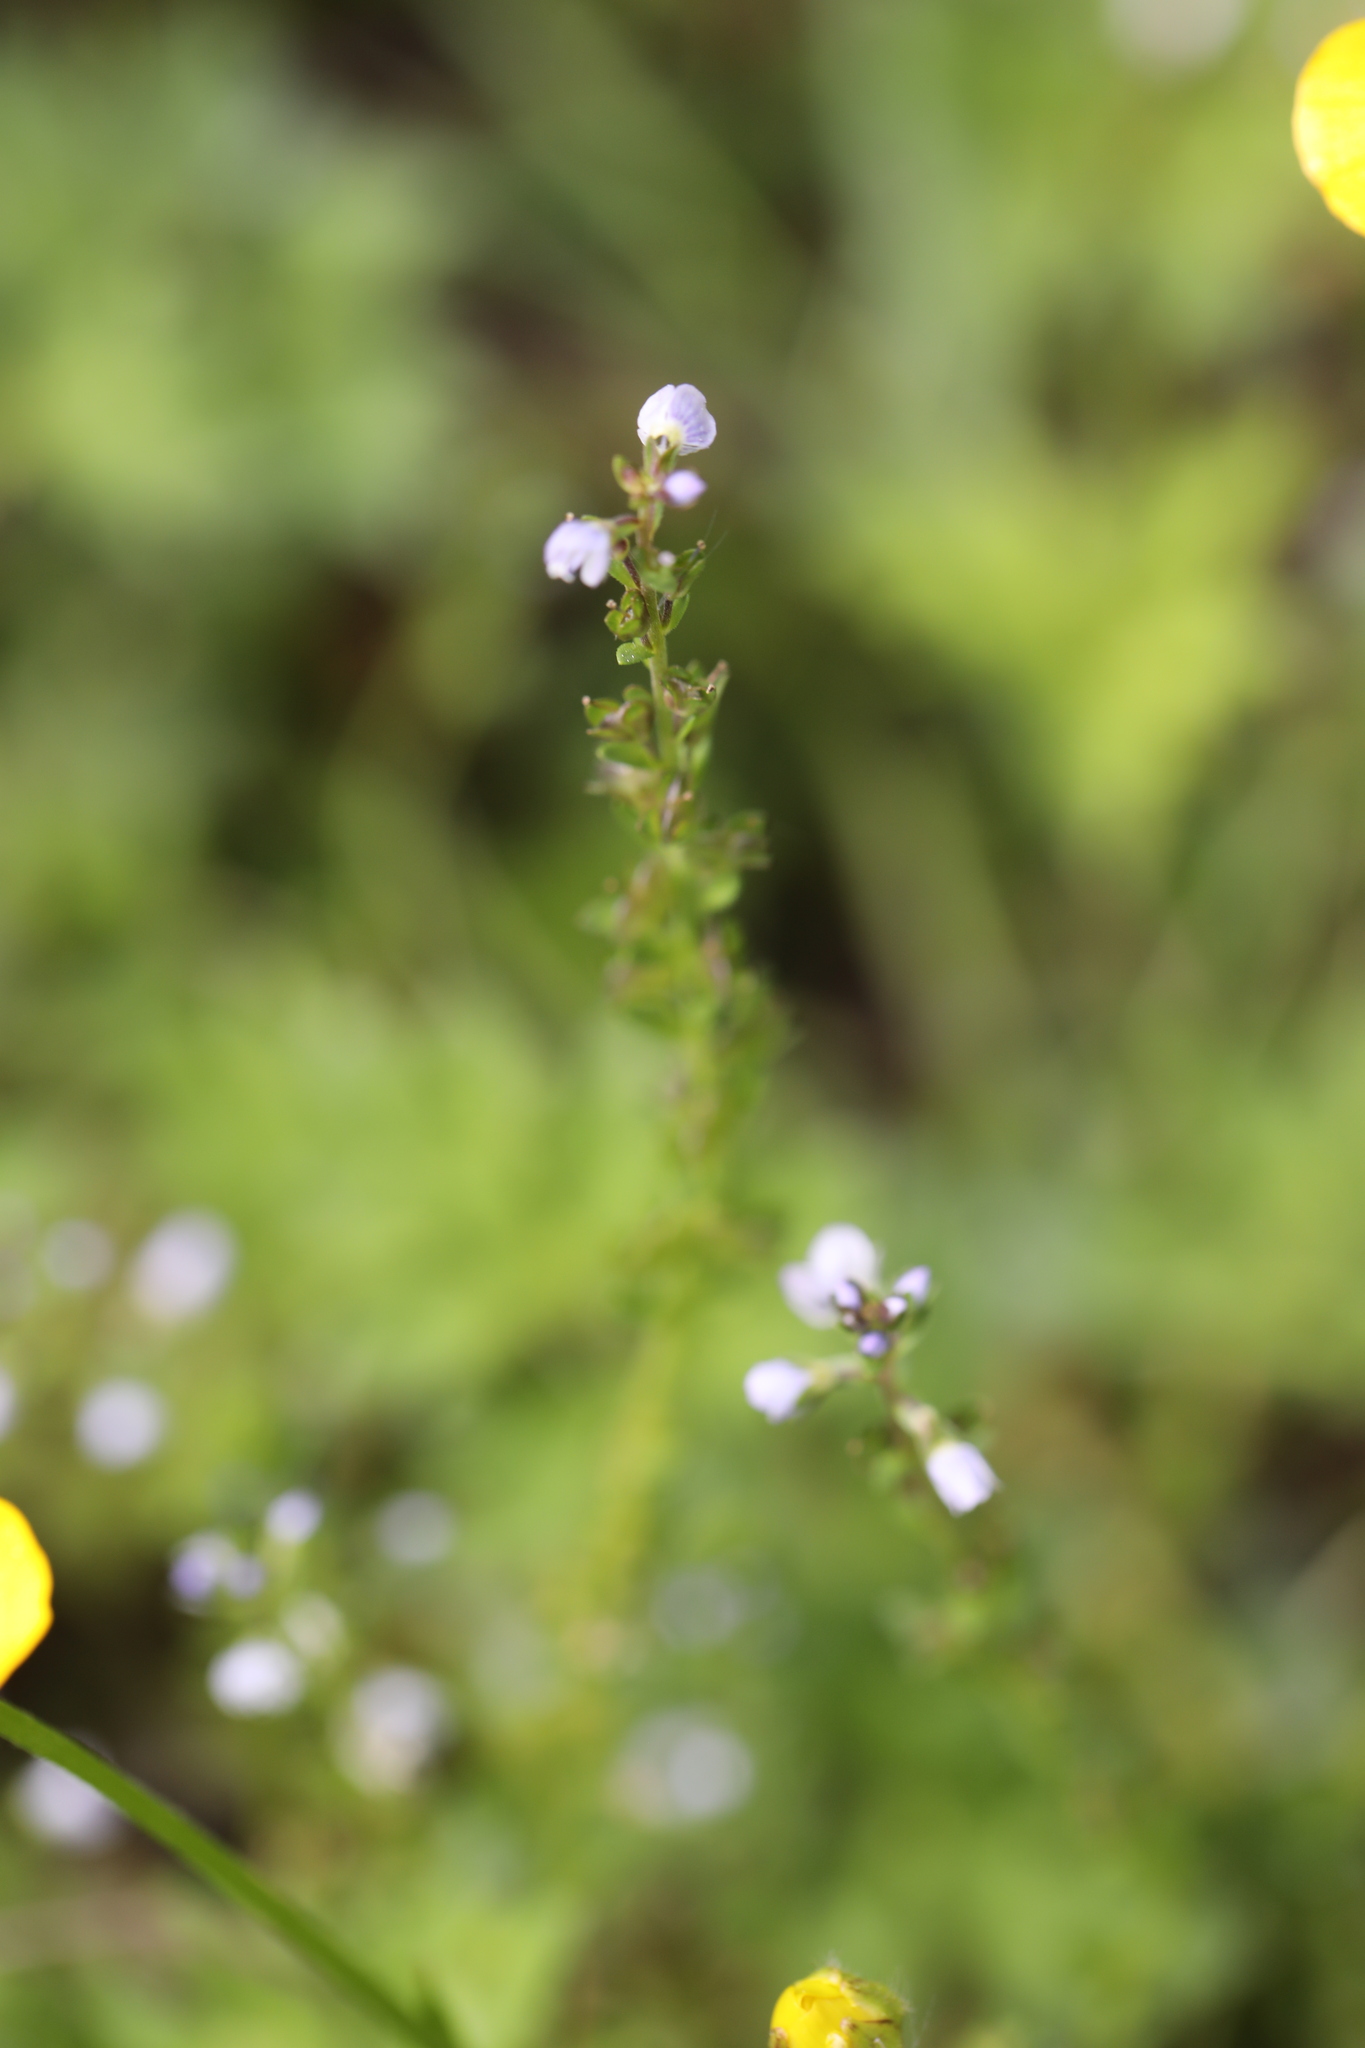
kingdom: Plantae
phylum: Tracheophyta
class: Magnoliopsida
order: Lamiales
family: Plantaginaceae
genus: Veronica
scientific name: Veronica serpyllifolia
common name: Thyme-leaved speedwell
